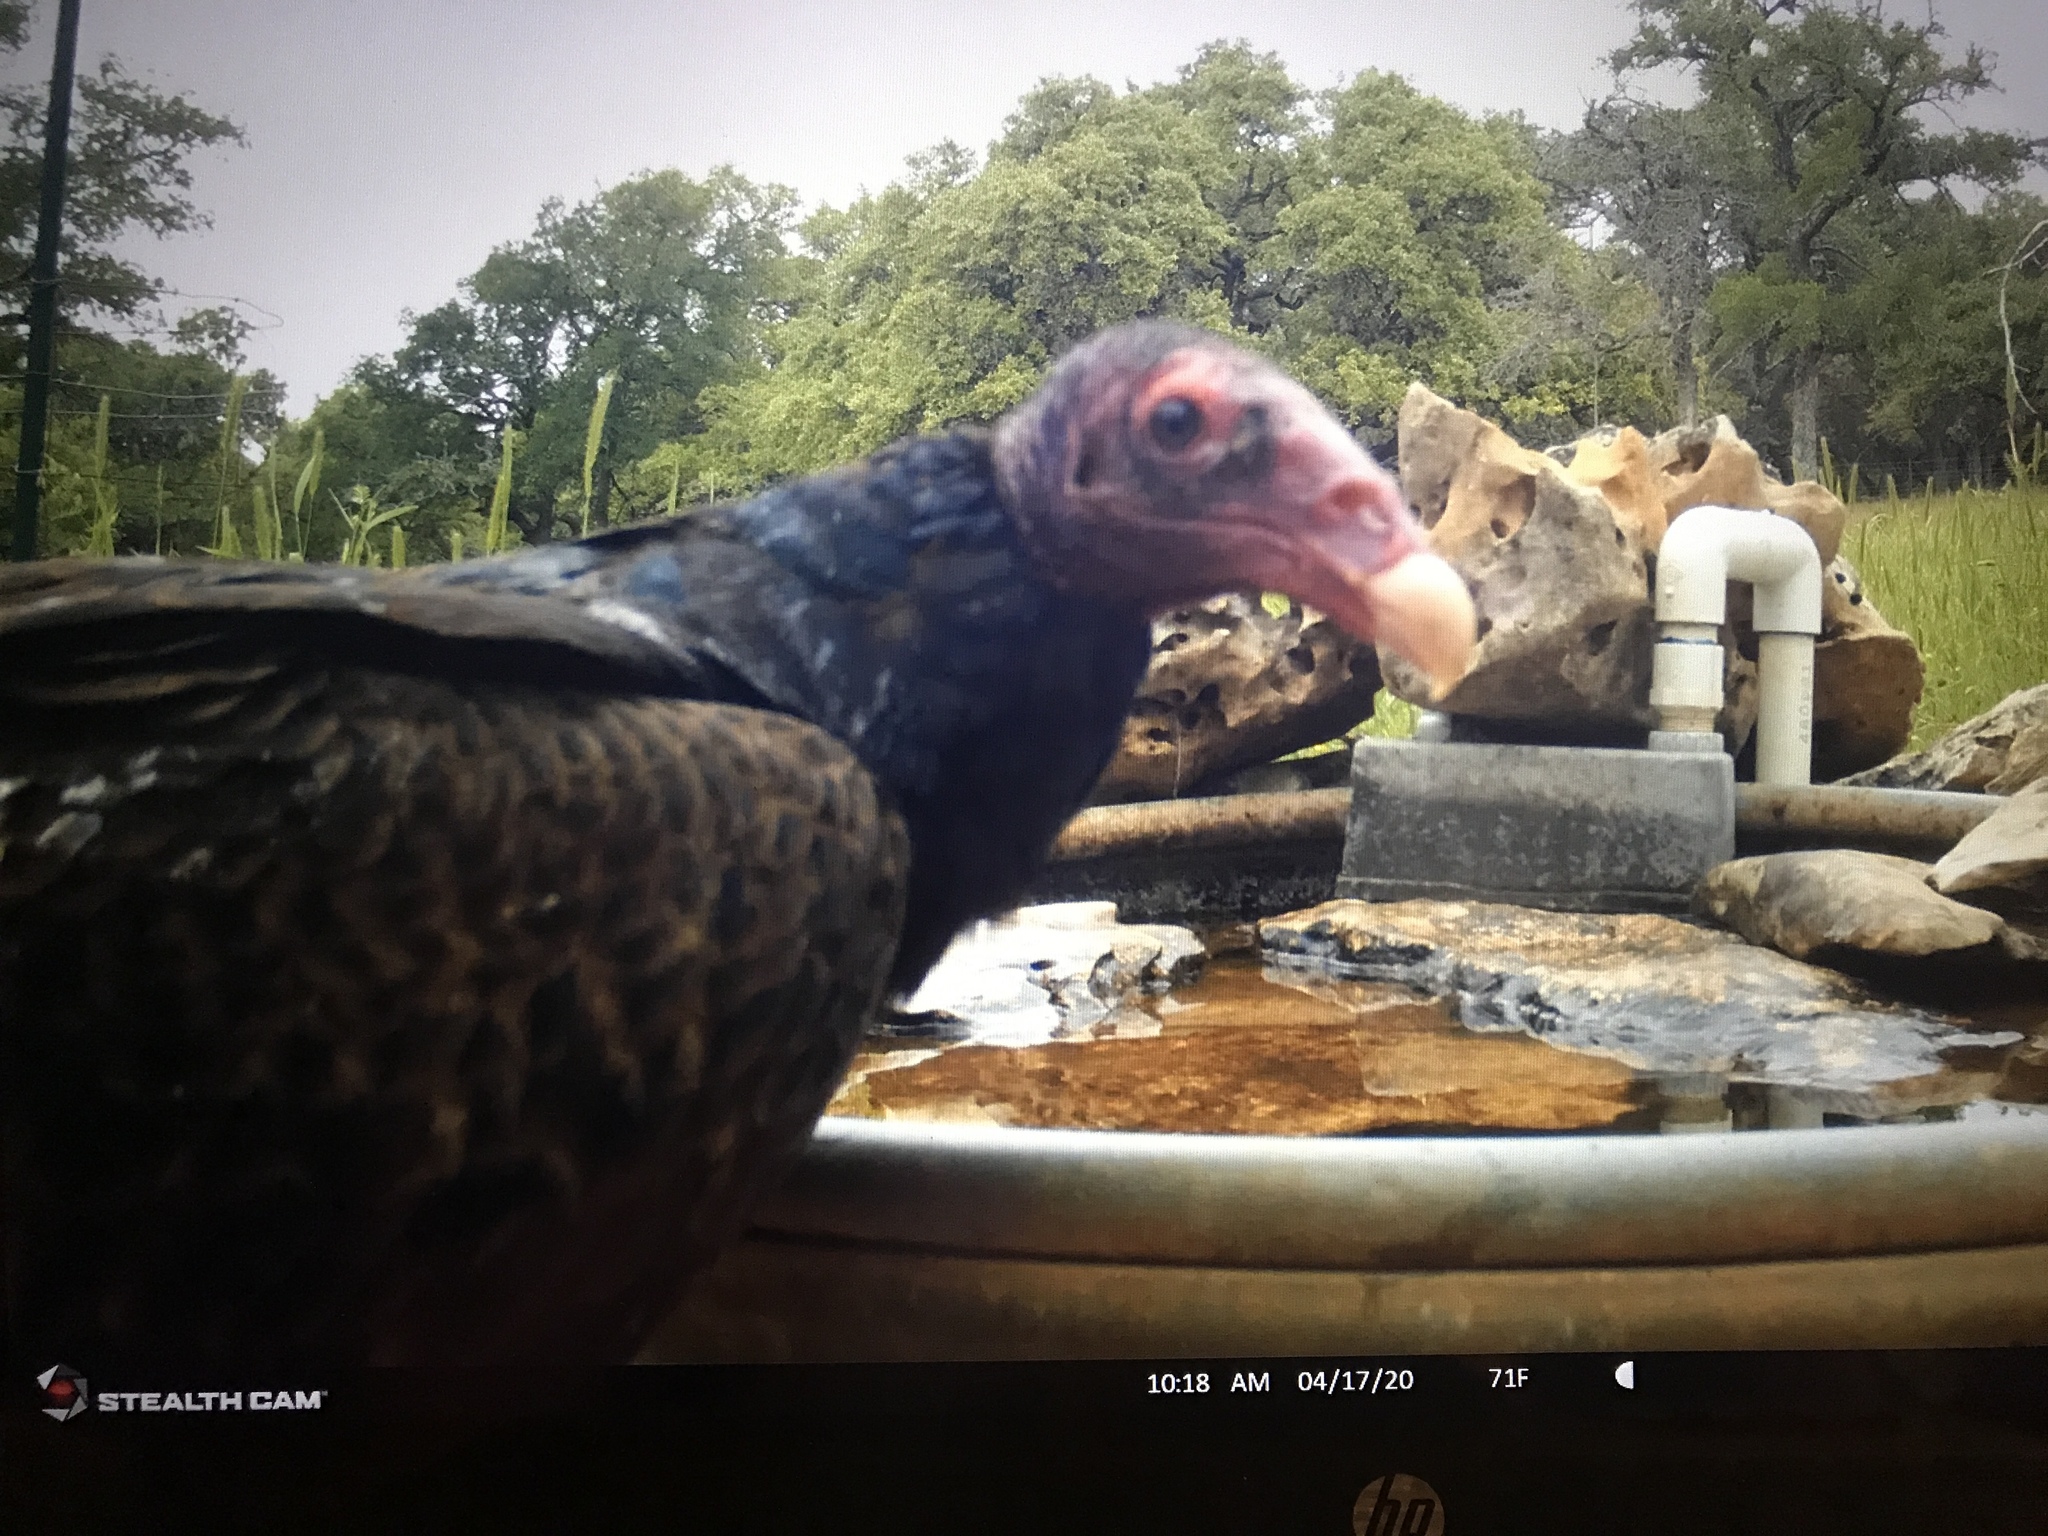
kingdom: Animalia
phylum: Chordata
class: Aves
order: Accipitriformes
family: Cathartidae
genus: Cathartes
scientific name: Cathartes aura
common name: Turkey vulture
